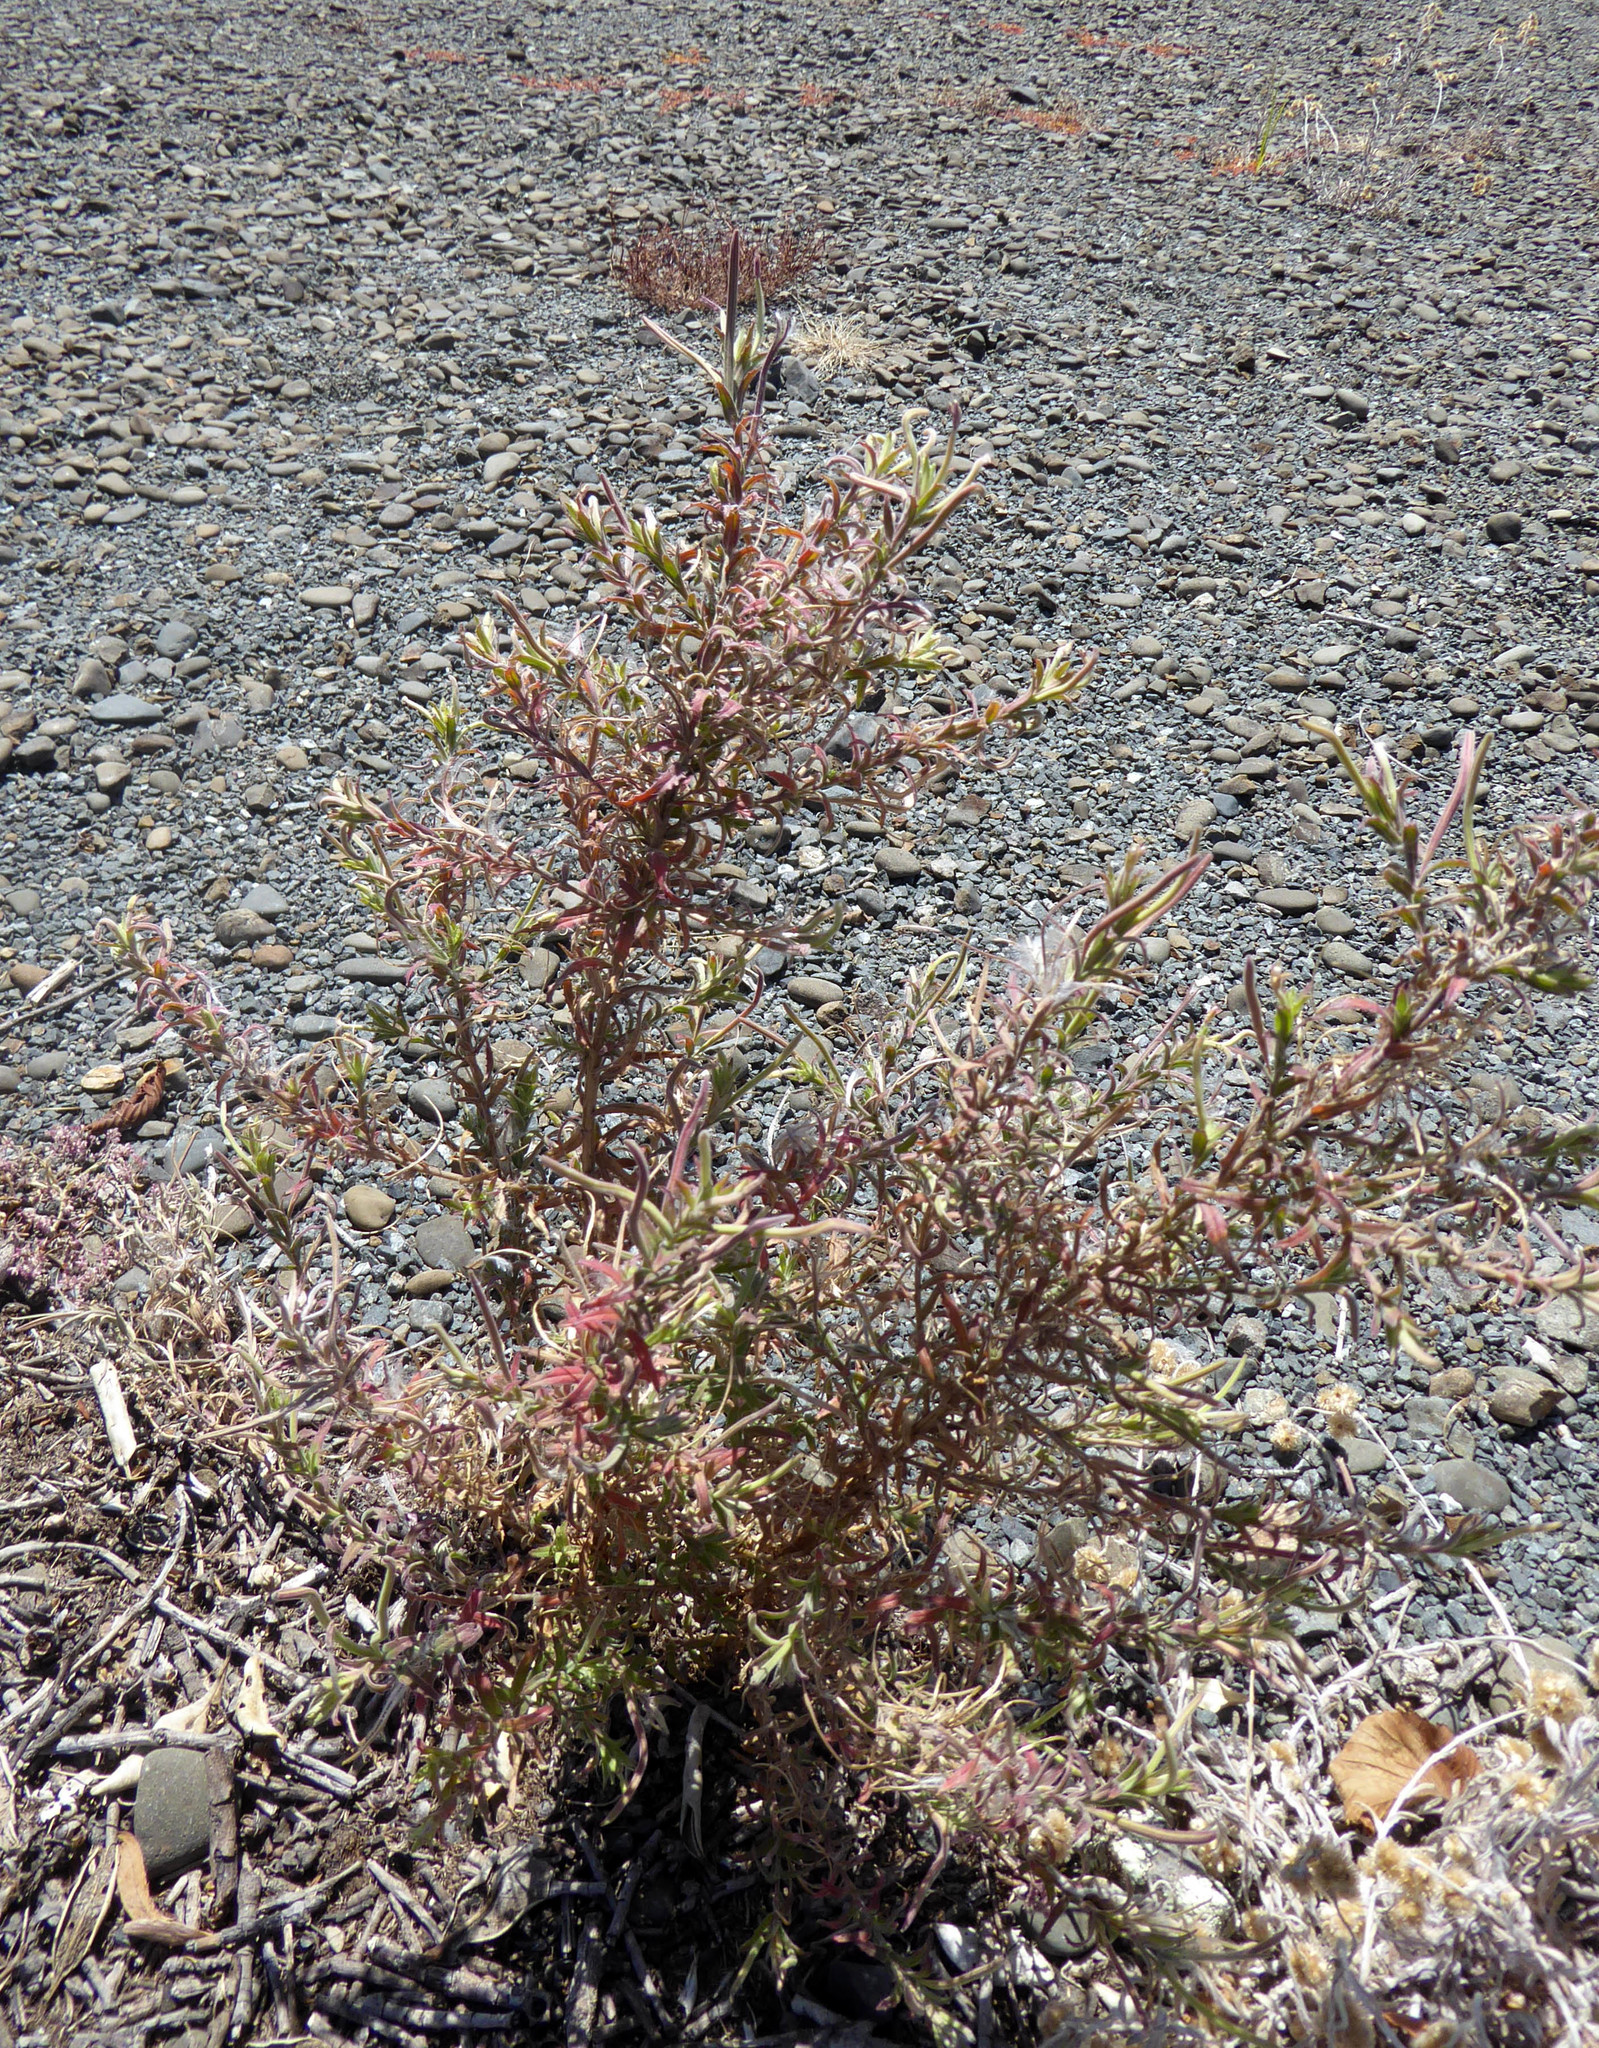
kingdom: Plantae
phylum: Tracheophyta
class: Magnoliopsida
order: Myrtales
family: Onagraceae
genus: Epilobium
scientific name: Epilobium hirtigerum
